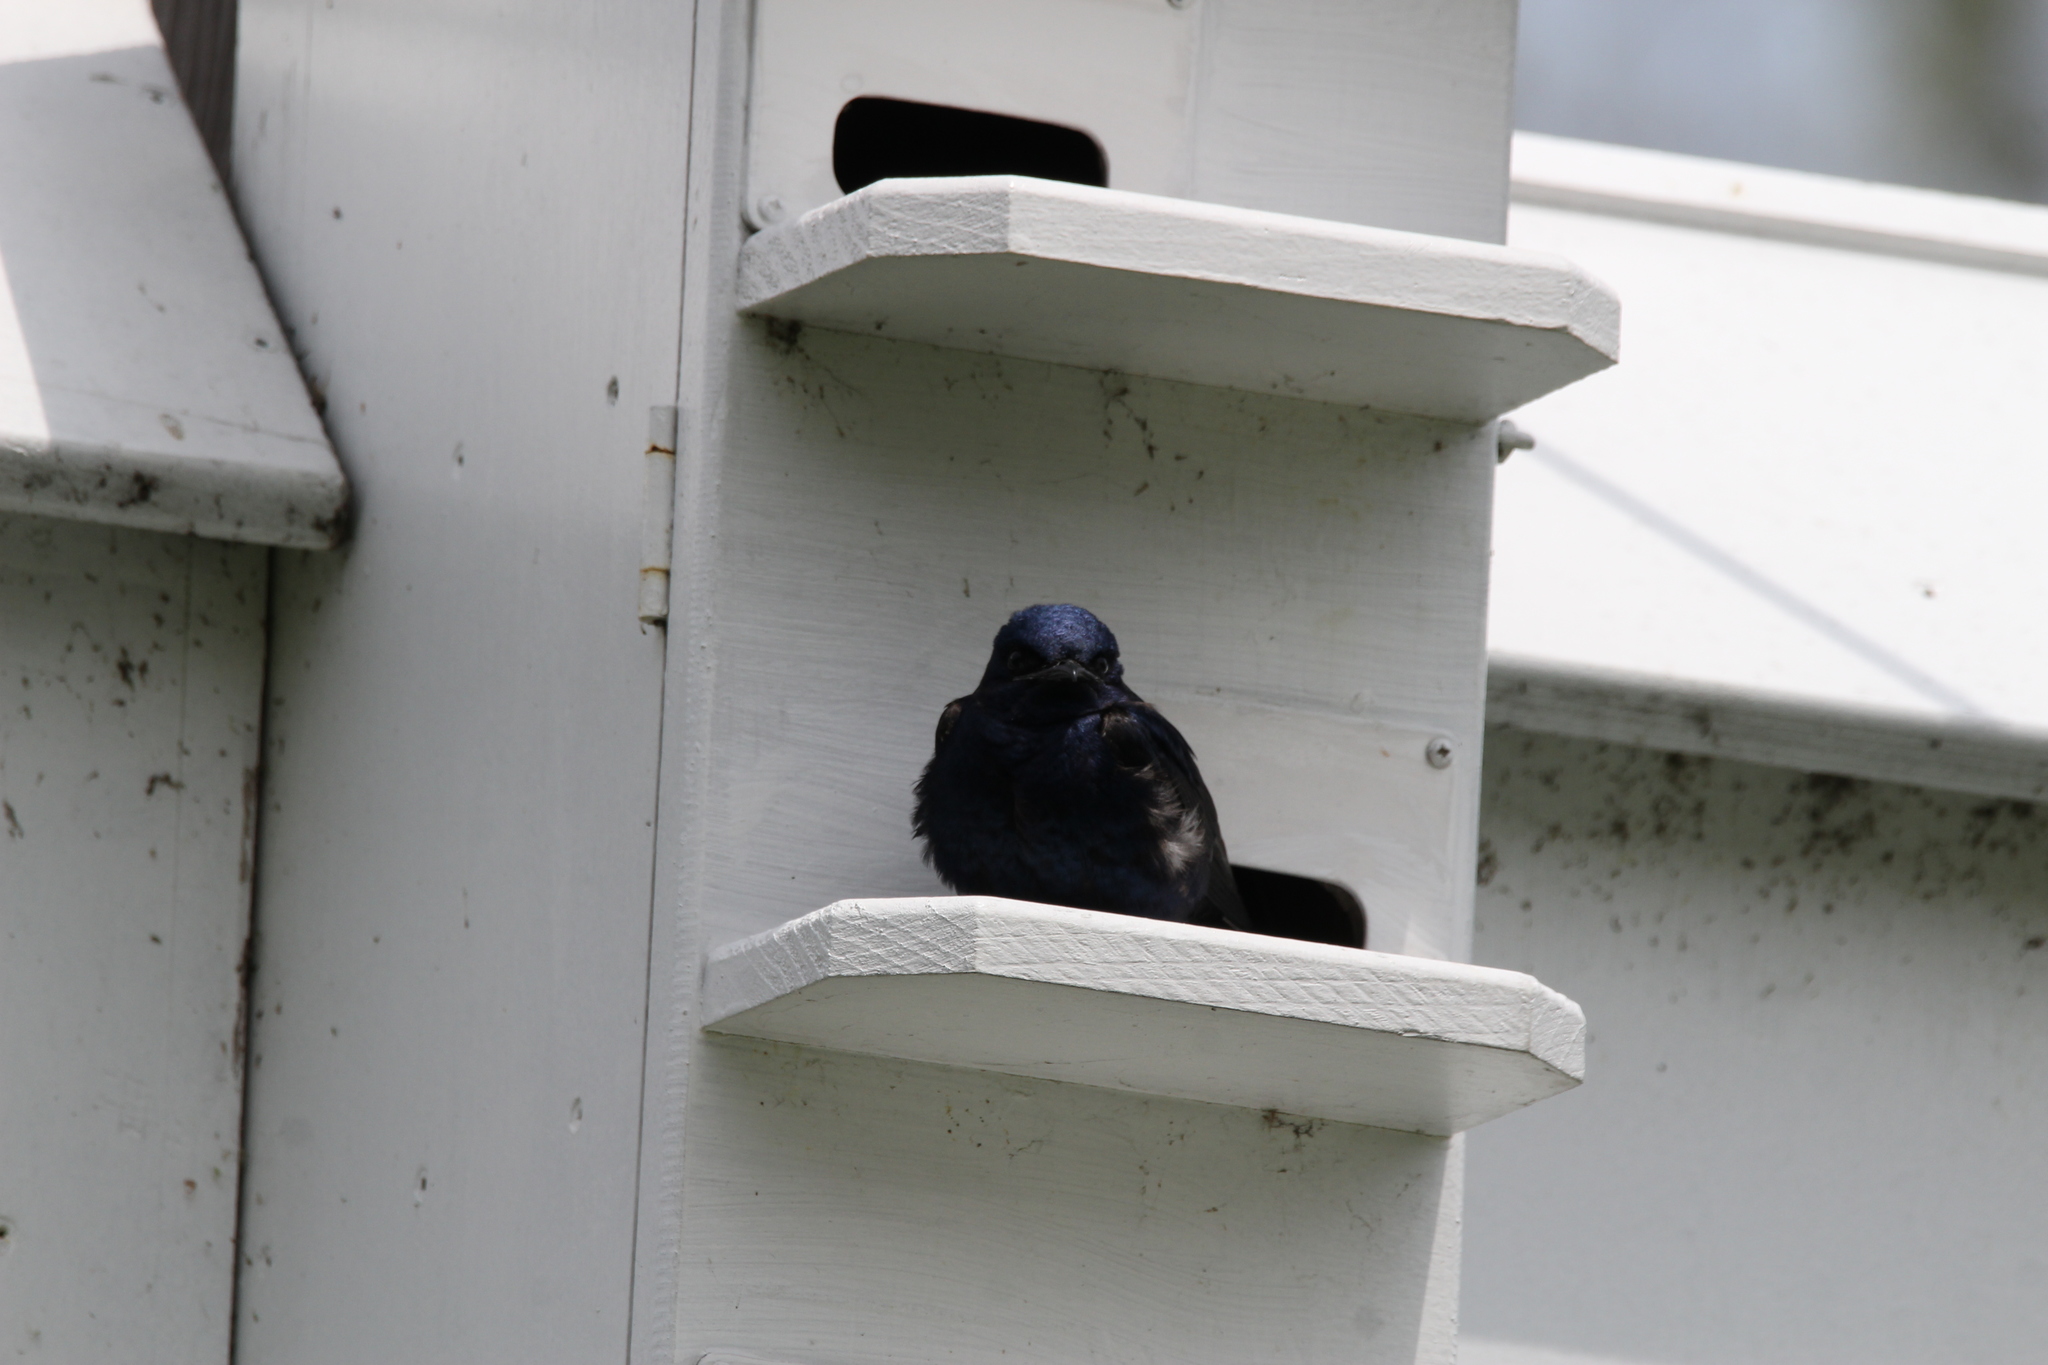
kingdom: Animalia
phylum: Chordata
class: Aves
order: Passeriformes
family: Hirundinidae
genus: Progne
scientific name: Progne subis
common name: Purple martin
